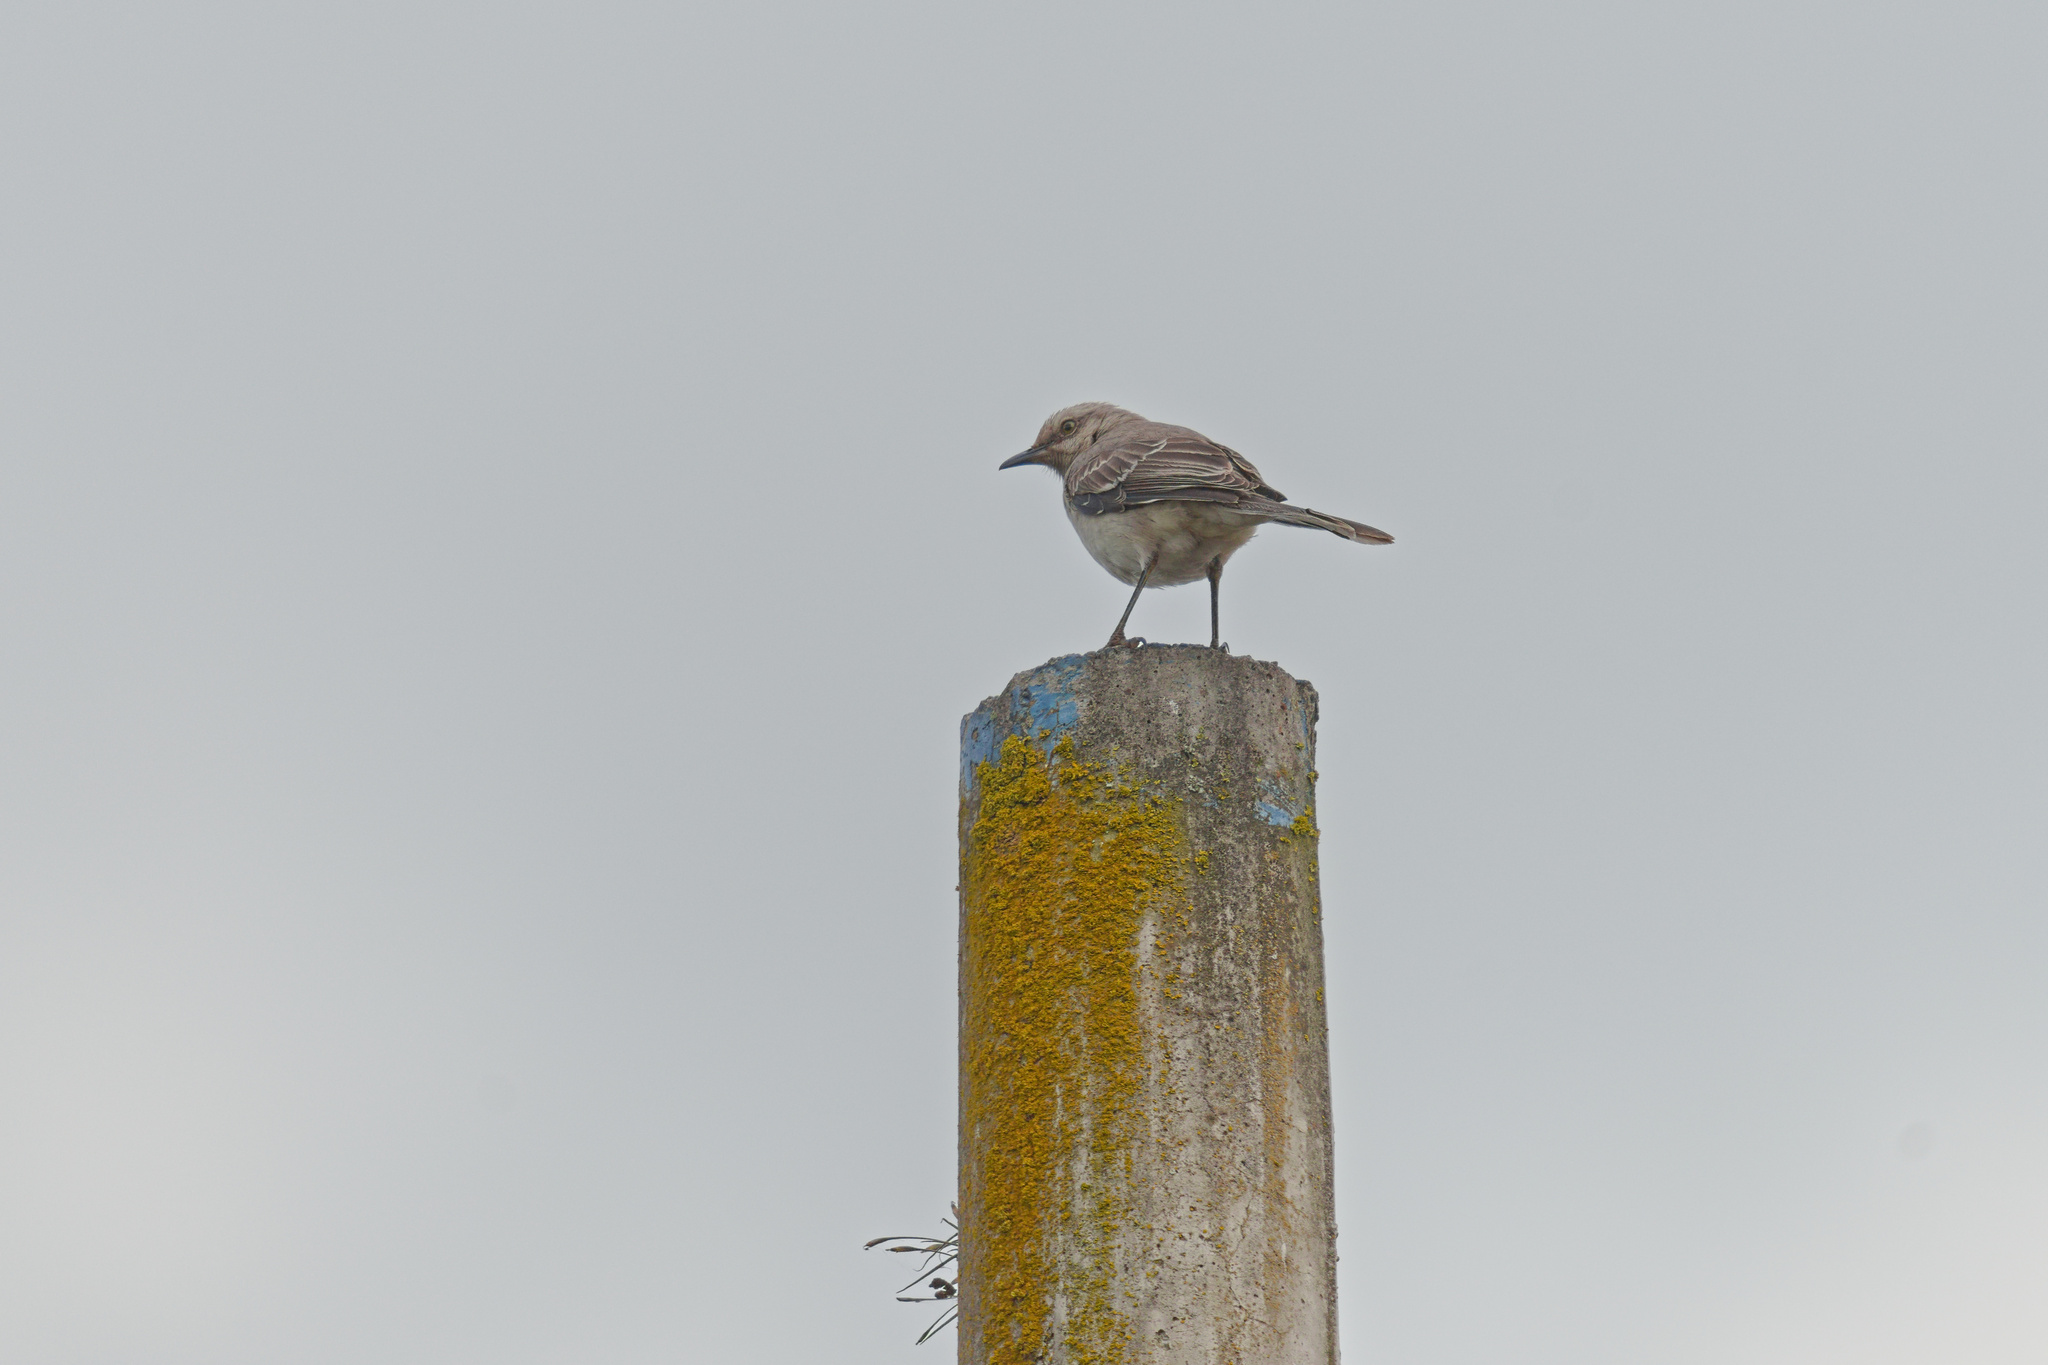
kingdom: Animalia
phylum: Chordata
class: Aves
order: Passeriformes
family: Mimidae
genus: Mimus
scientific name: Mimus gilvus
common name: Tropical mockingbird
